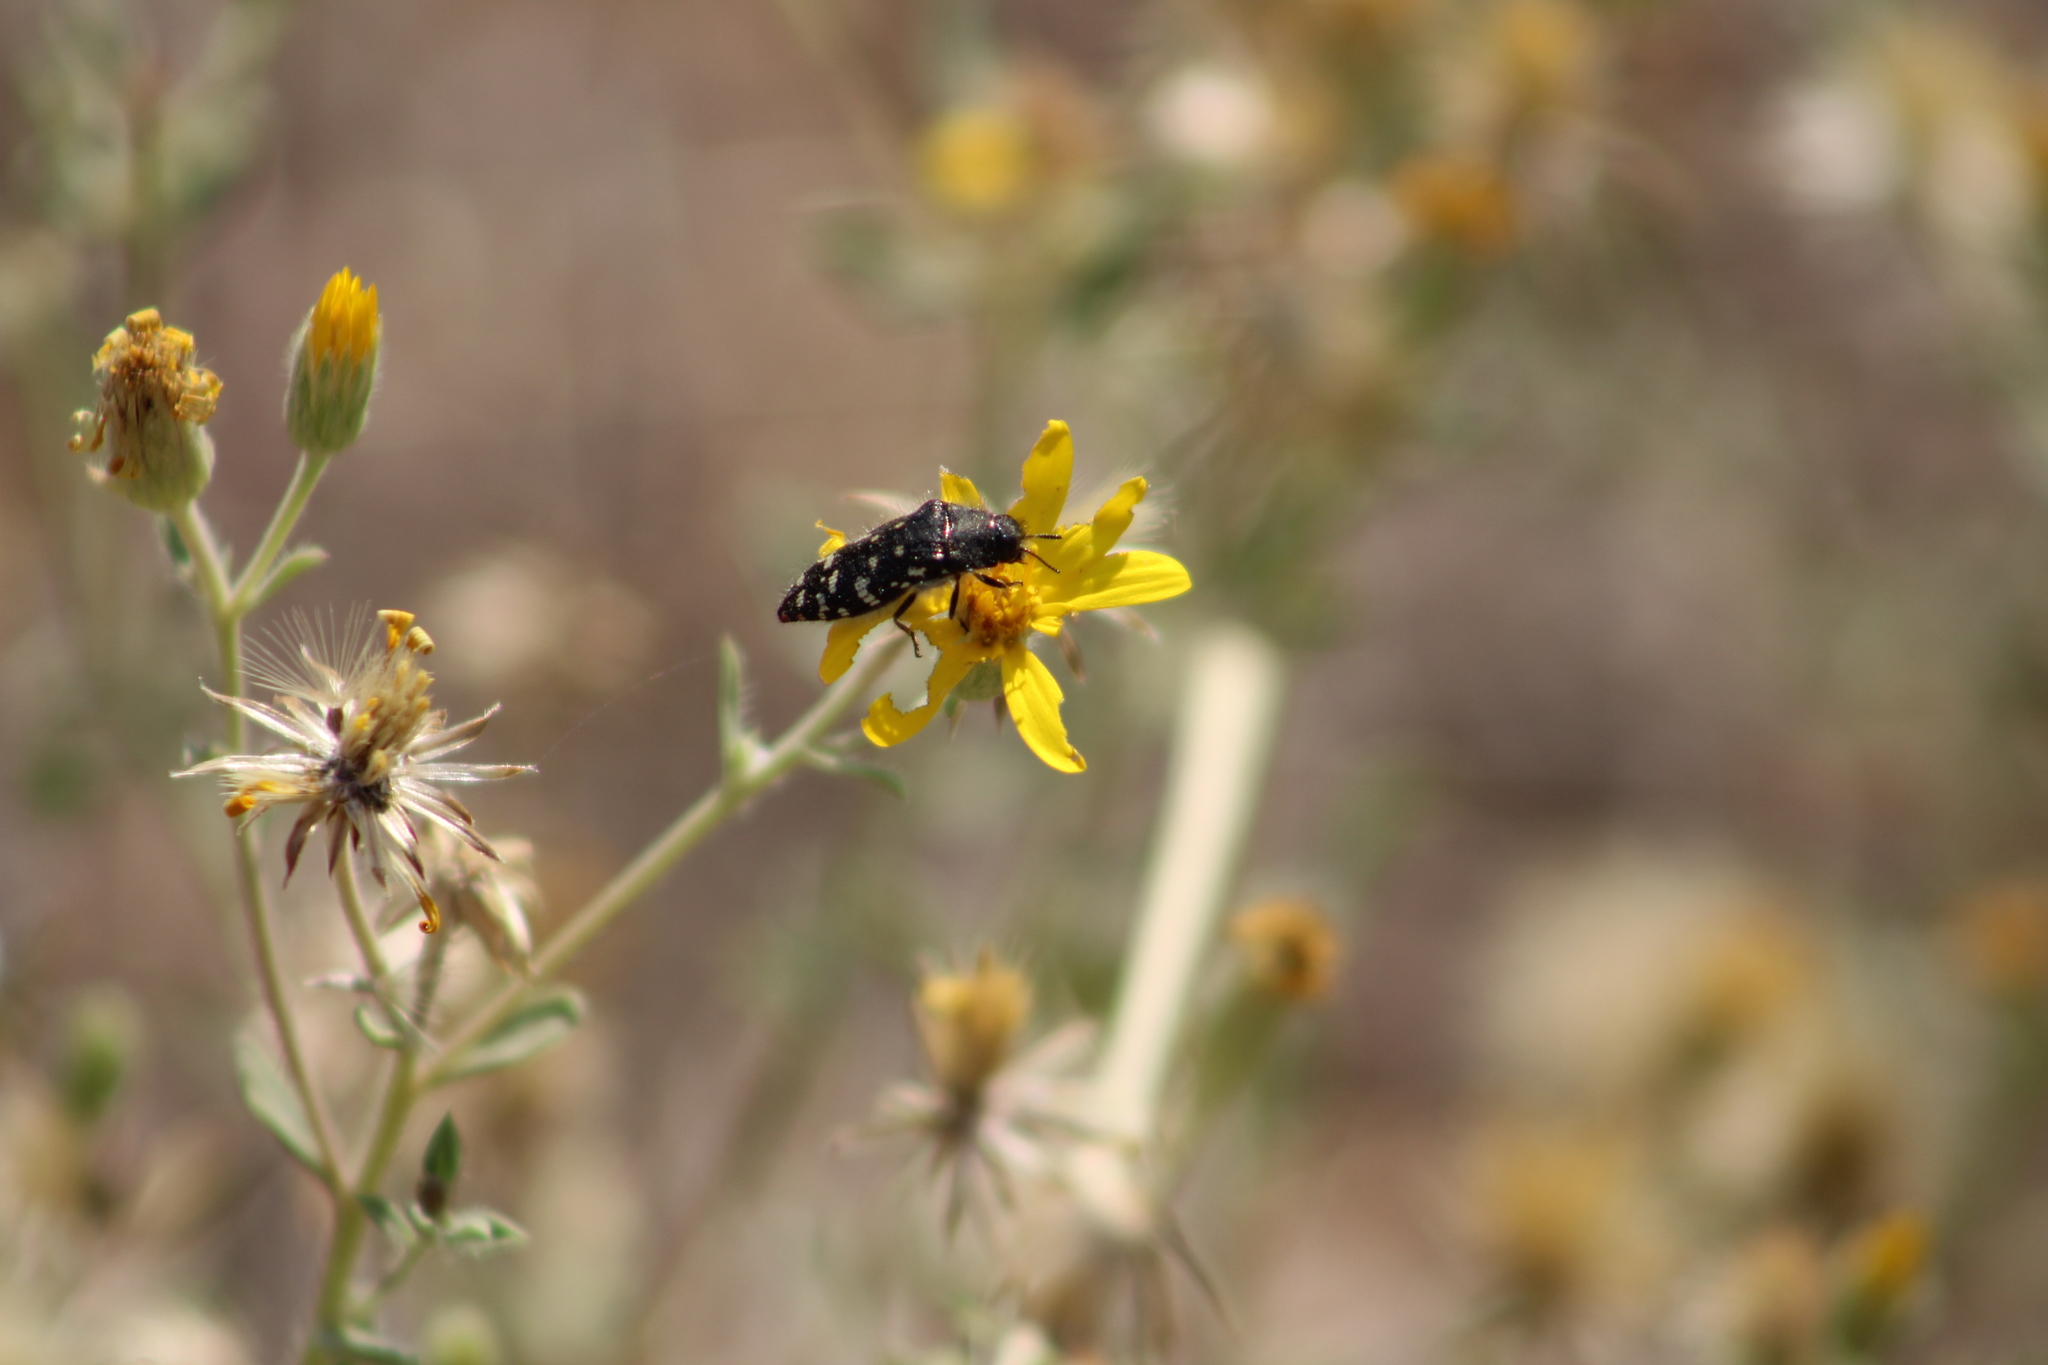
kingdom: Animalia
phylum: Arthropoda
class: Insecta
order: Coleoptera
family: Buprestidae
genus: Acmaeodera
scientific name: Acmaeodera rubronotata
